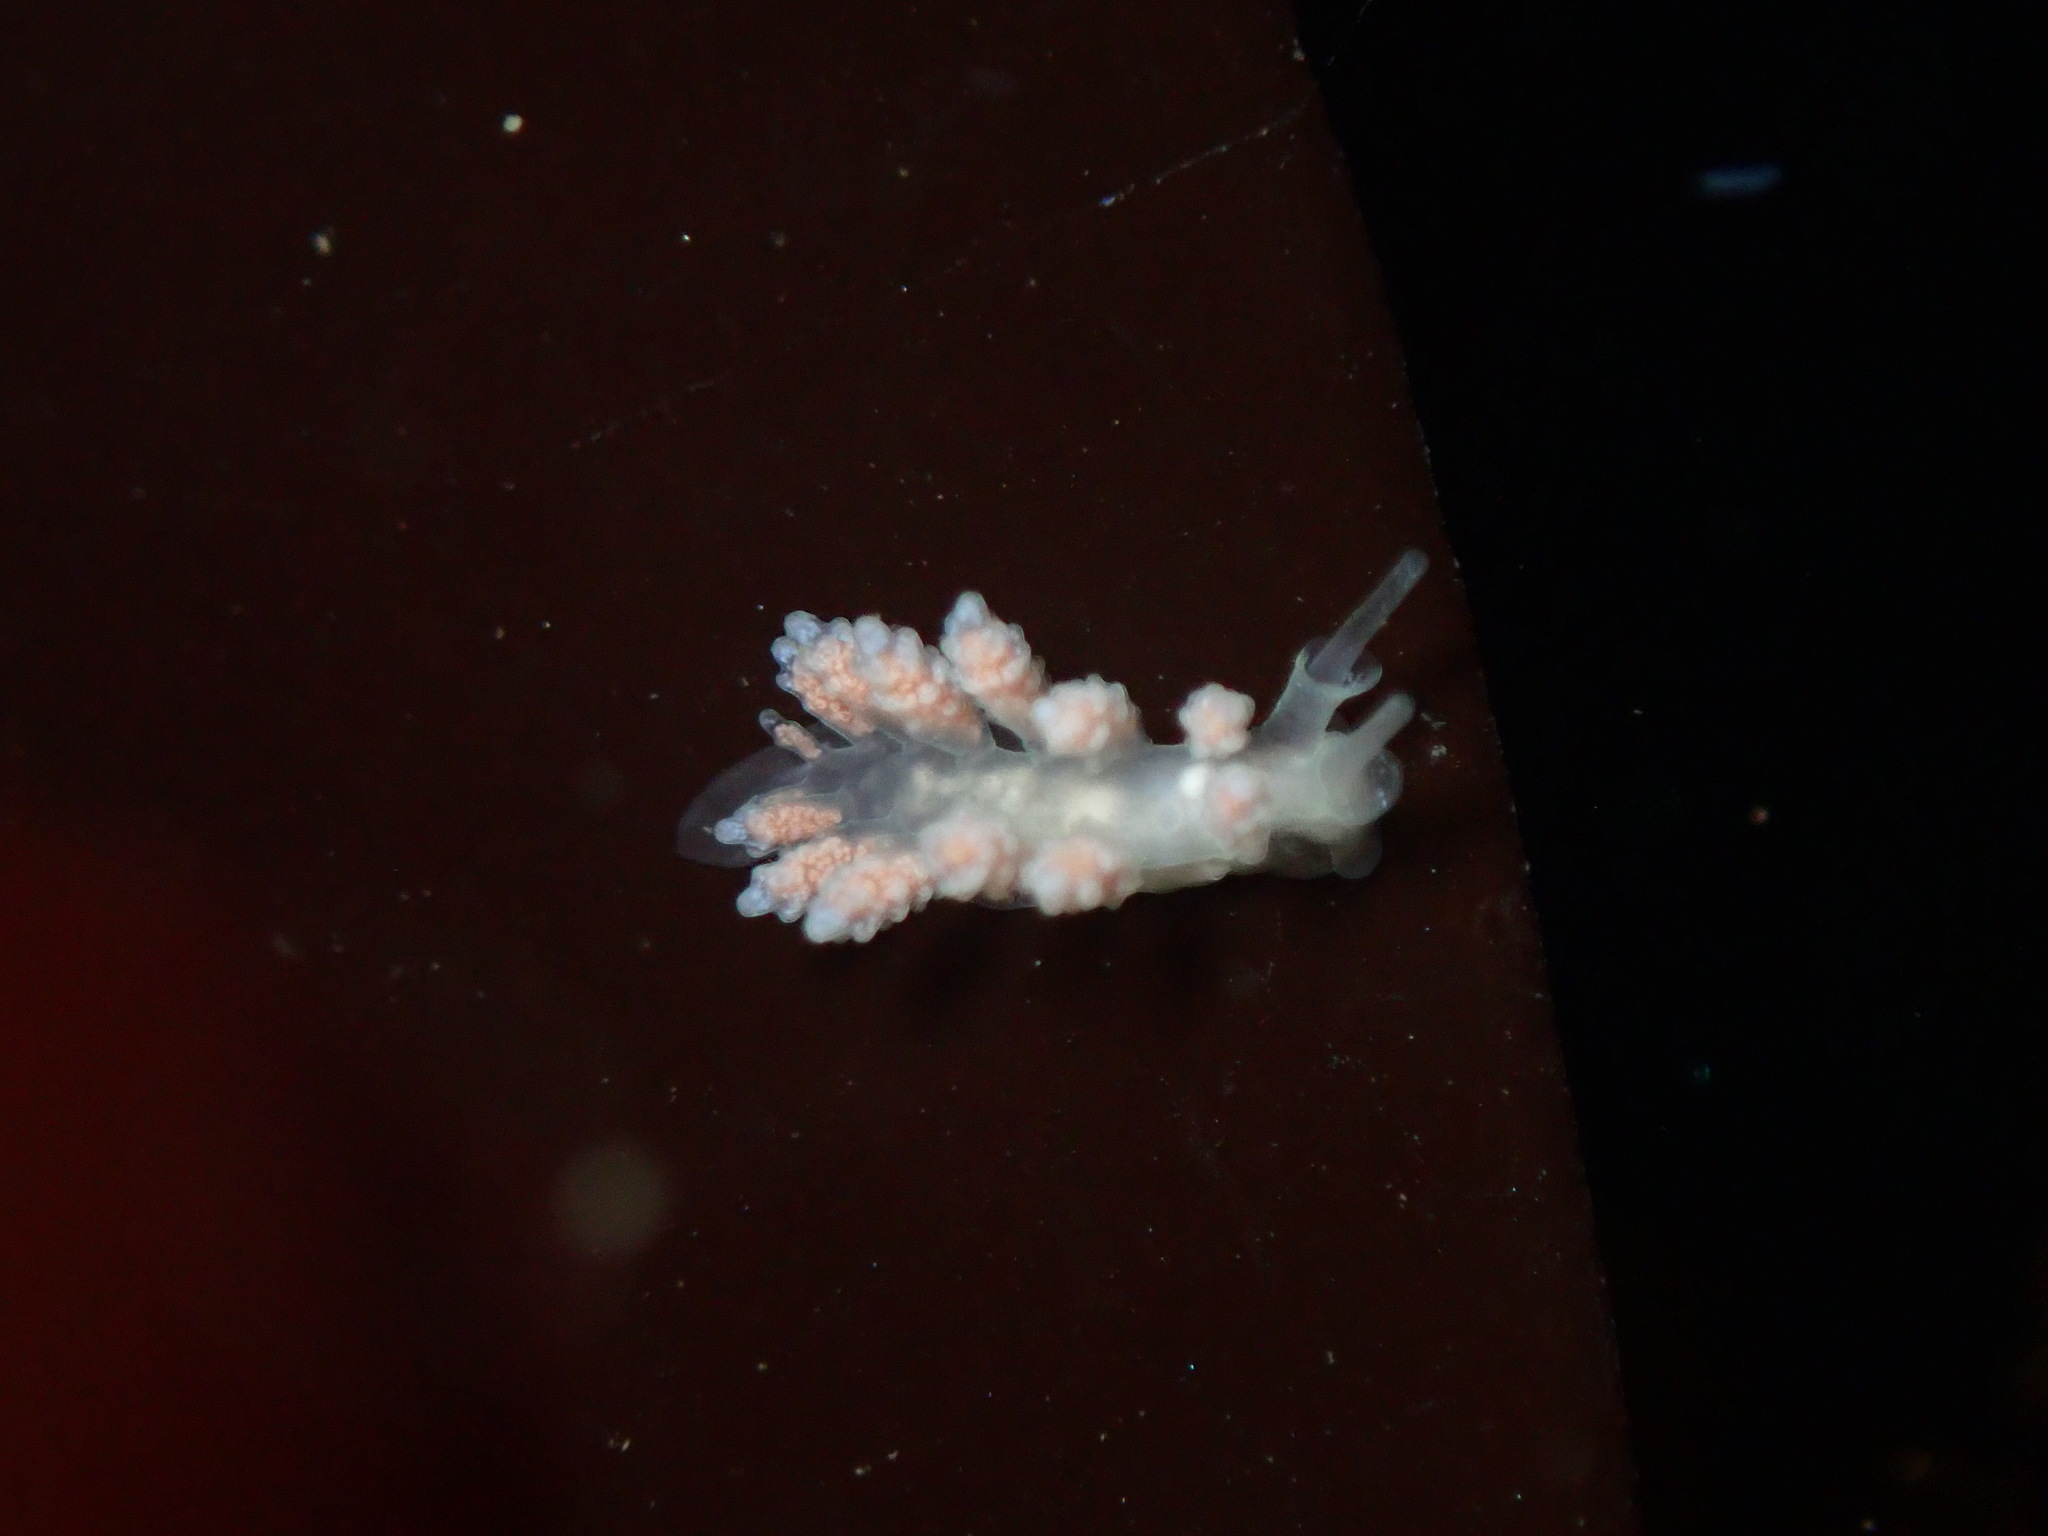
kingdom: Animalia
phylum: Mollusca
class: Gastropoda
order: Nudibranchia
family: Dotidae
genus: Doto
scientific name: Doto amyra
